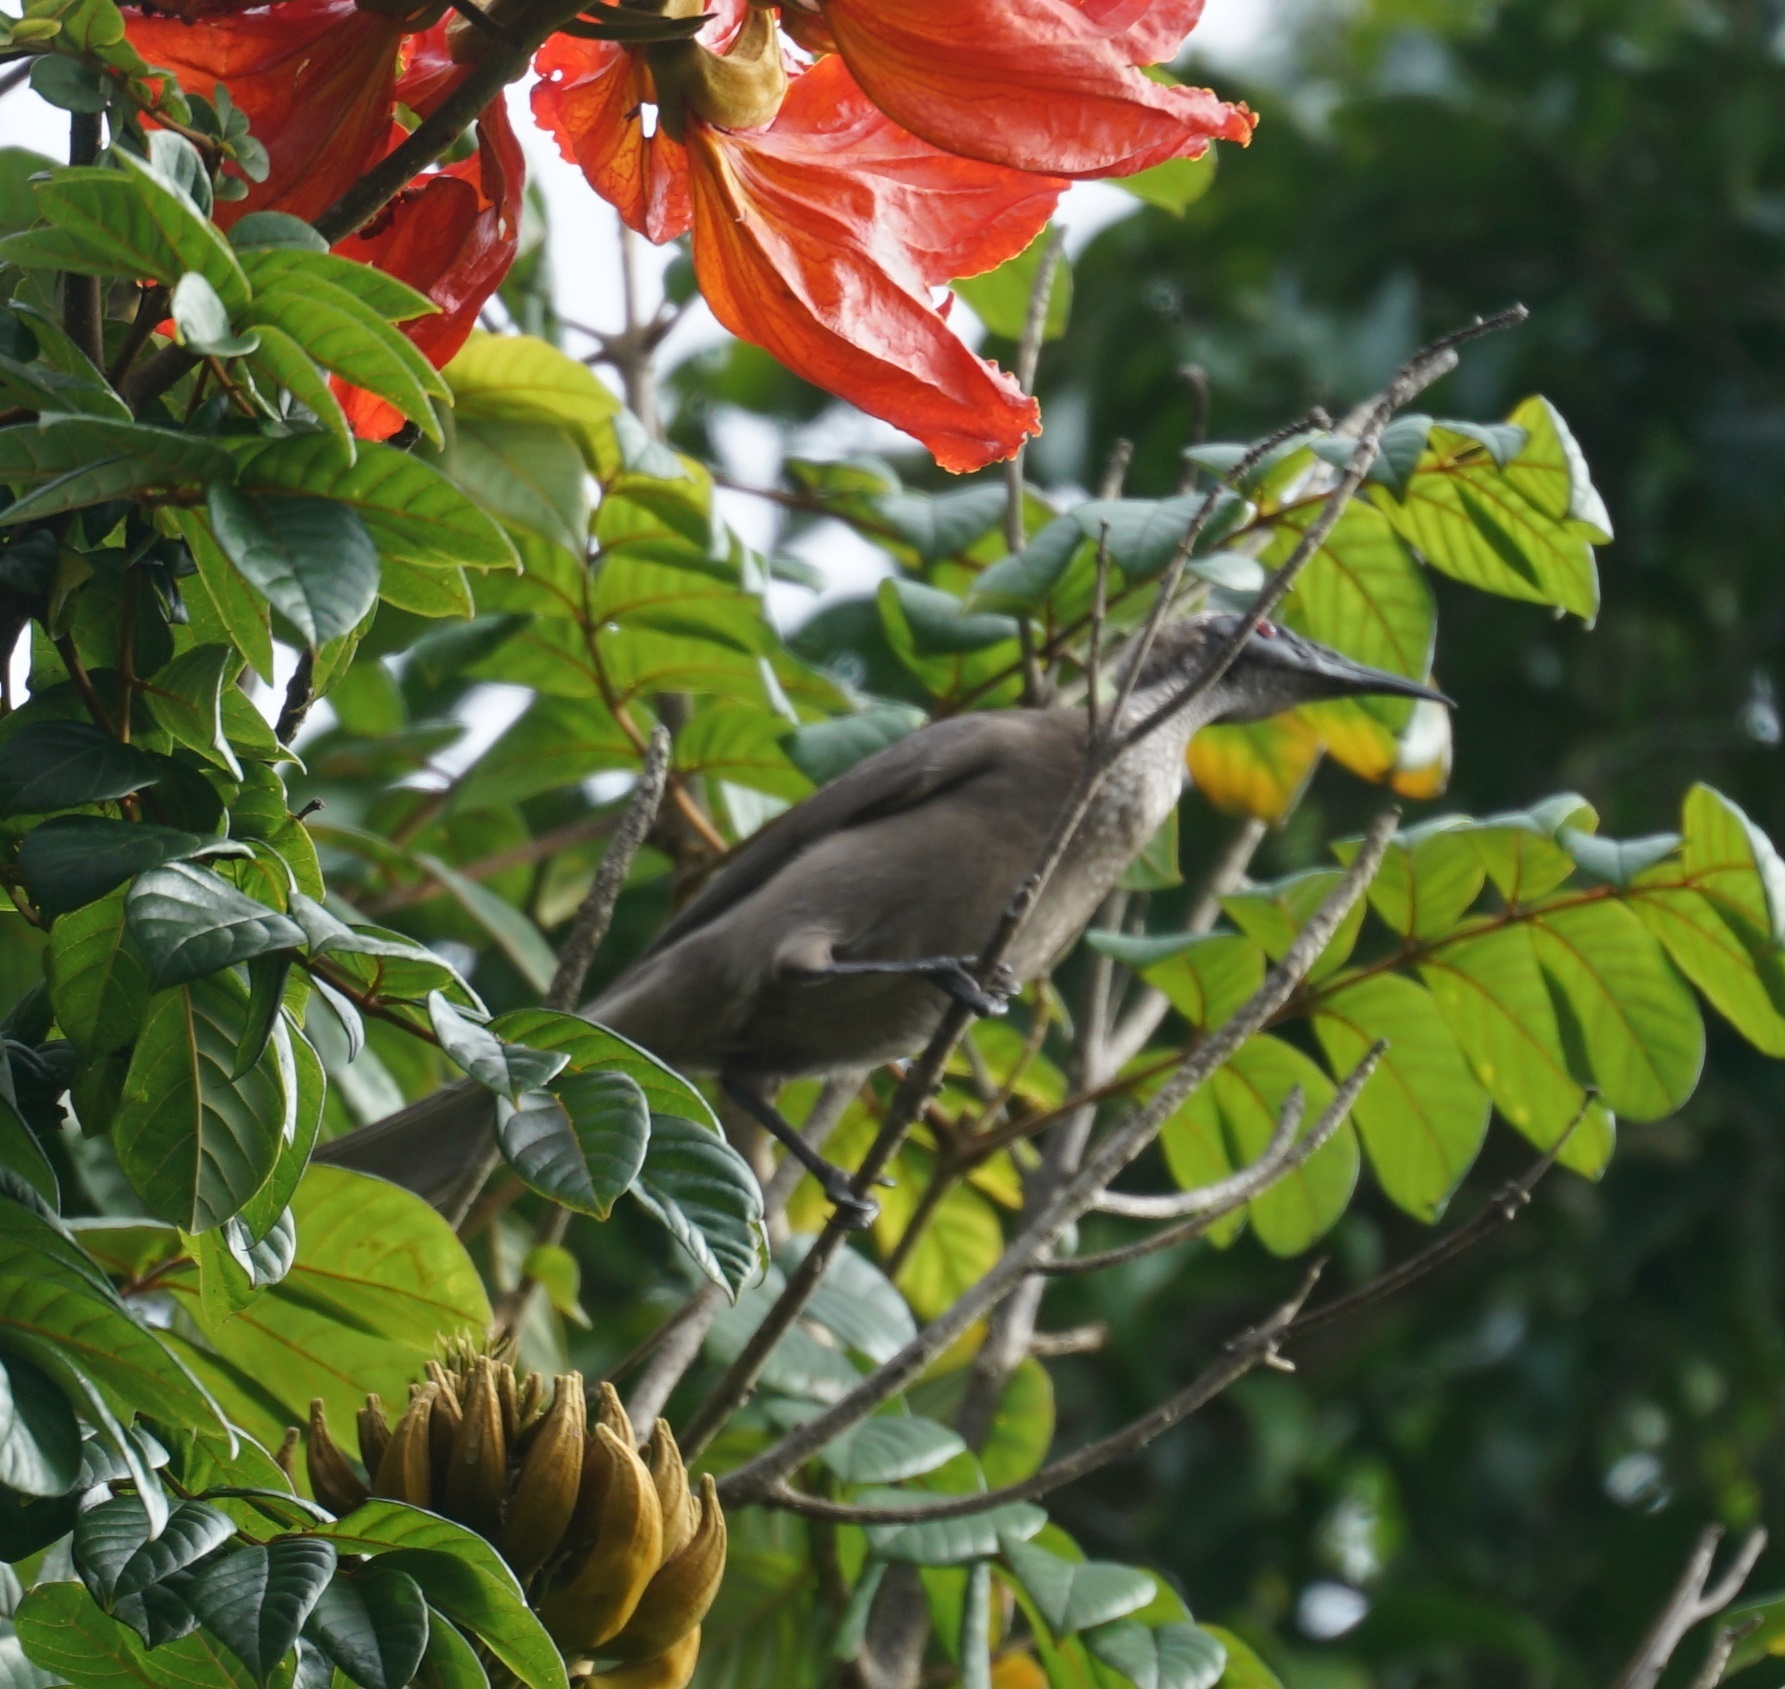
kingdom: Animalia
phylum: Chordata
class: Aves
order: Passeriformes
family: Meliphagidae
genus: Philemon
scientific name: Philemon yorki
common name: Hornbill friarbird
